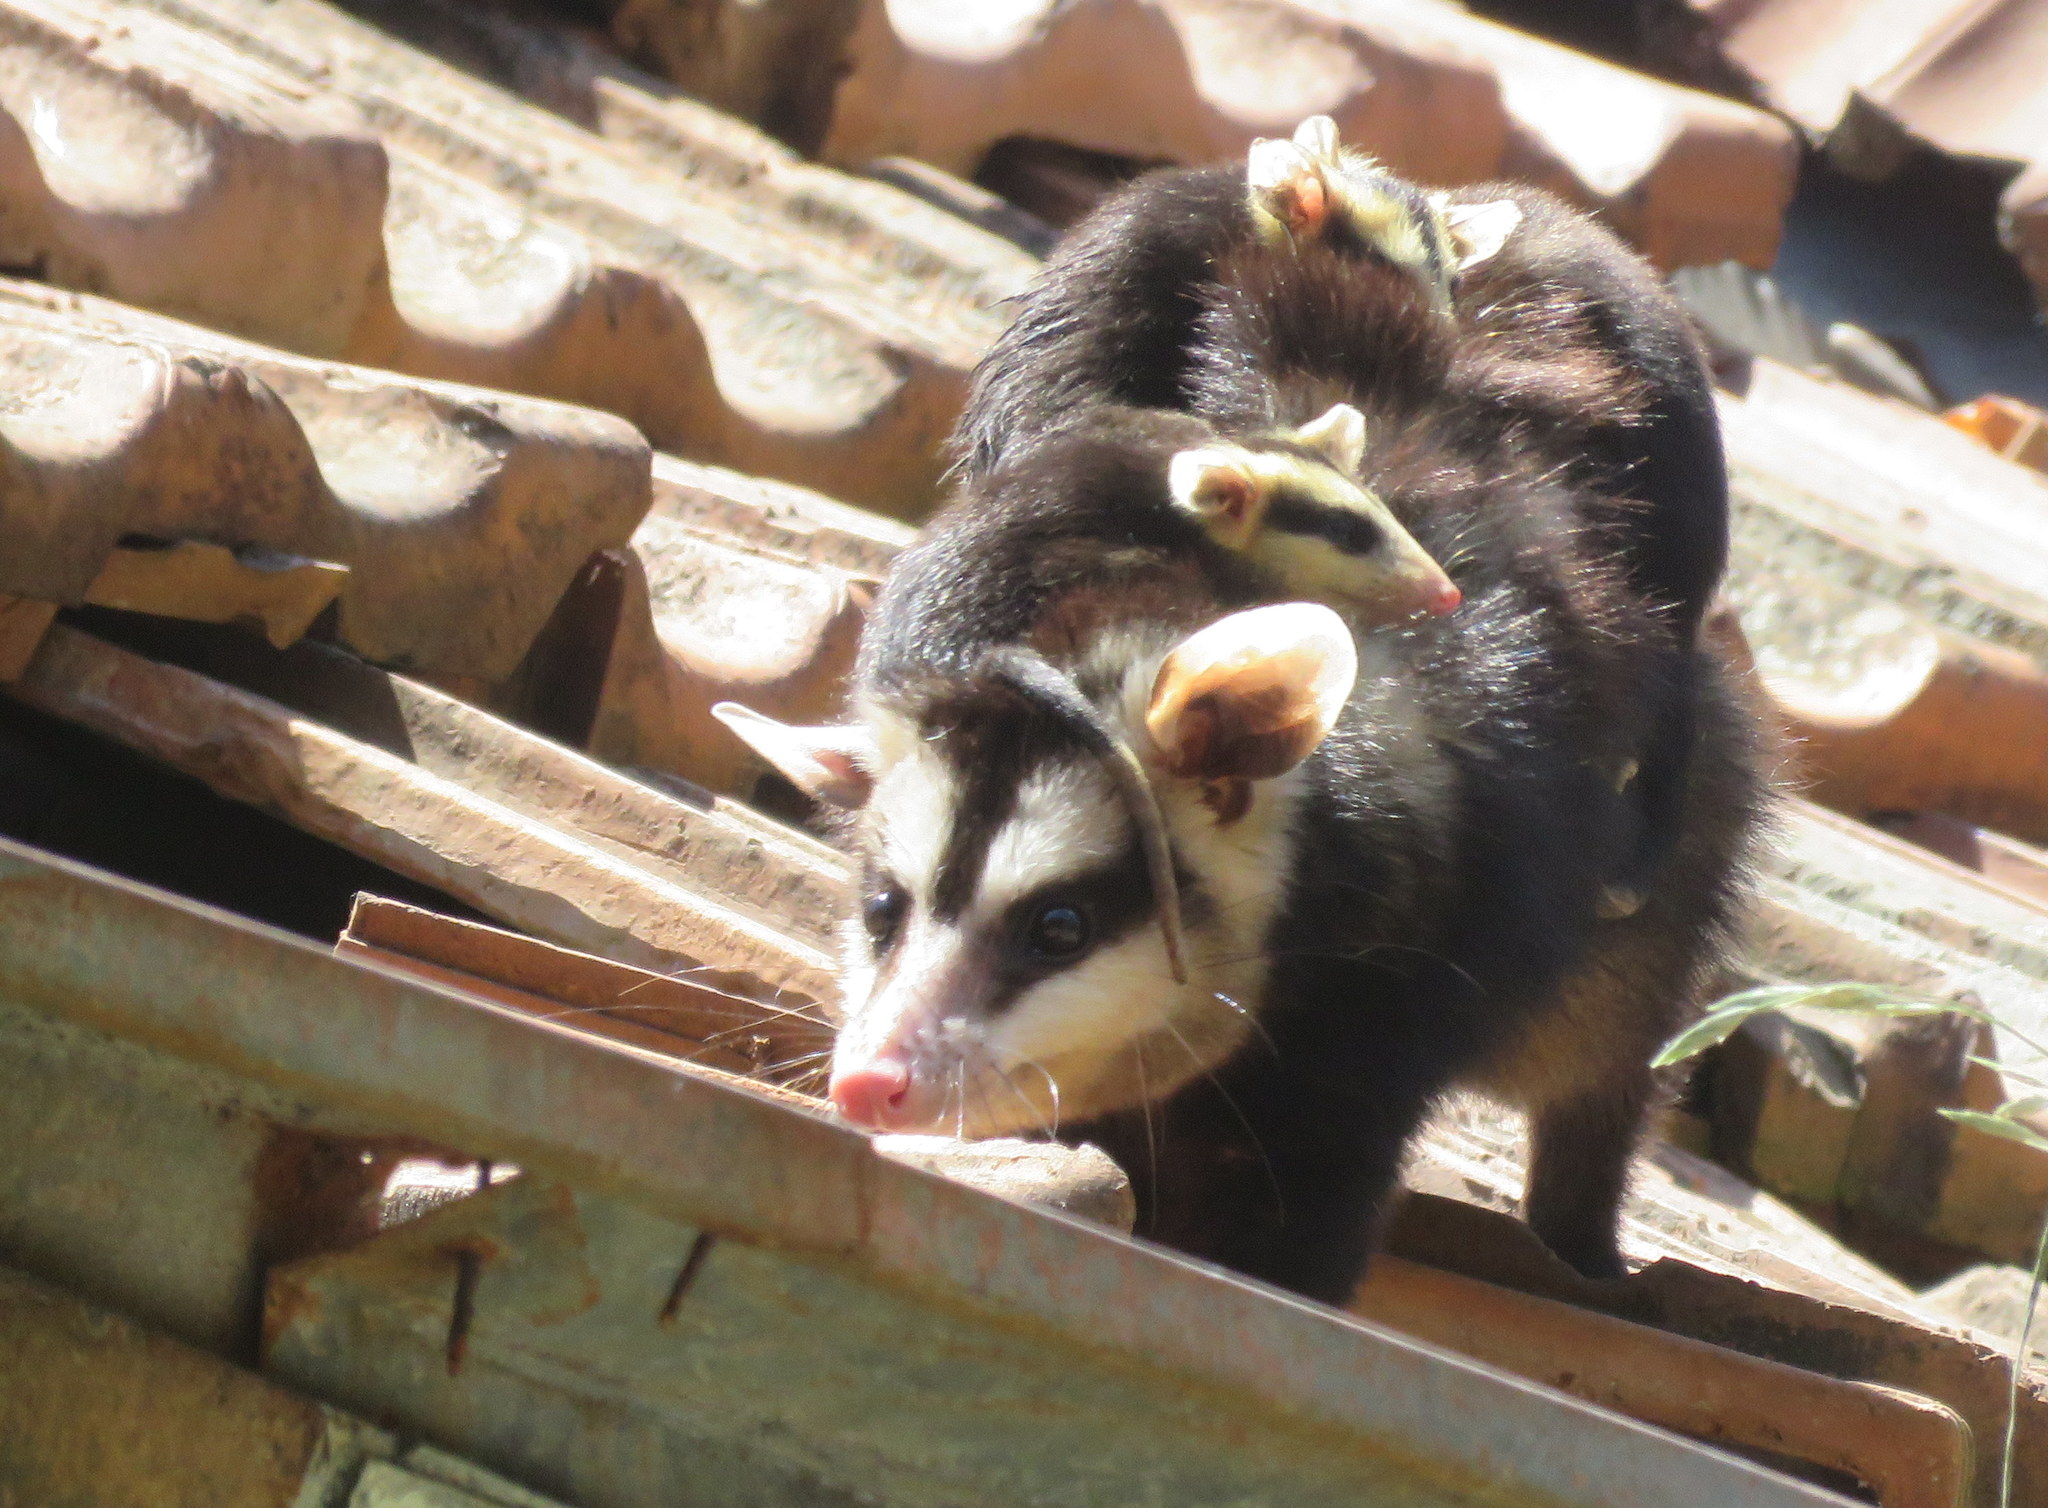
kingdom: Animalia
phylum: Chordata
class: Mammalia
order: Didelphimorphia
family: Didelphidae
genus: Didelphis
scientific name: Didelphis albiventris
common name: White-eared opossum
